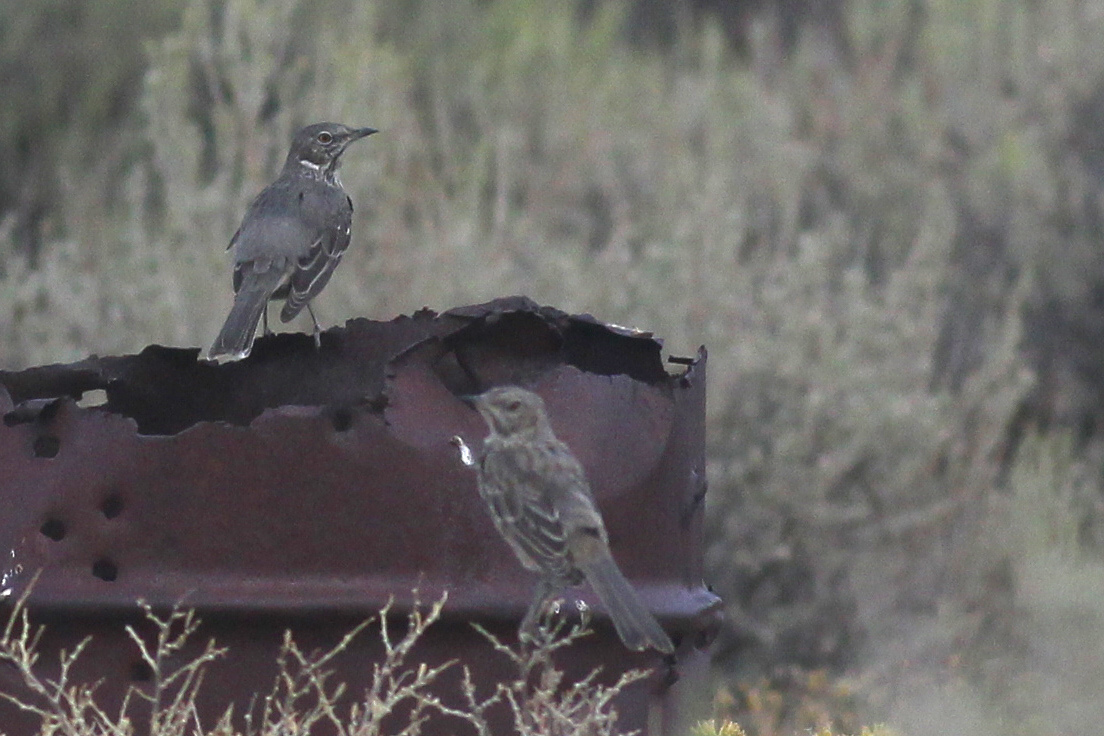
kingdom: Animalia
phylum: Chordata
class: Aves
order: Passeriformes
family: Mimidae
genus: Oreoscoptes
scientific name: Oreoscoptes montanus
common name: Sage thrasher
